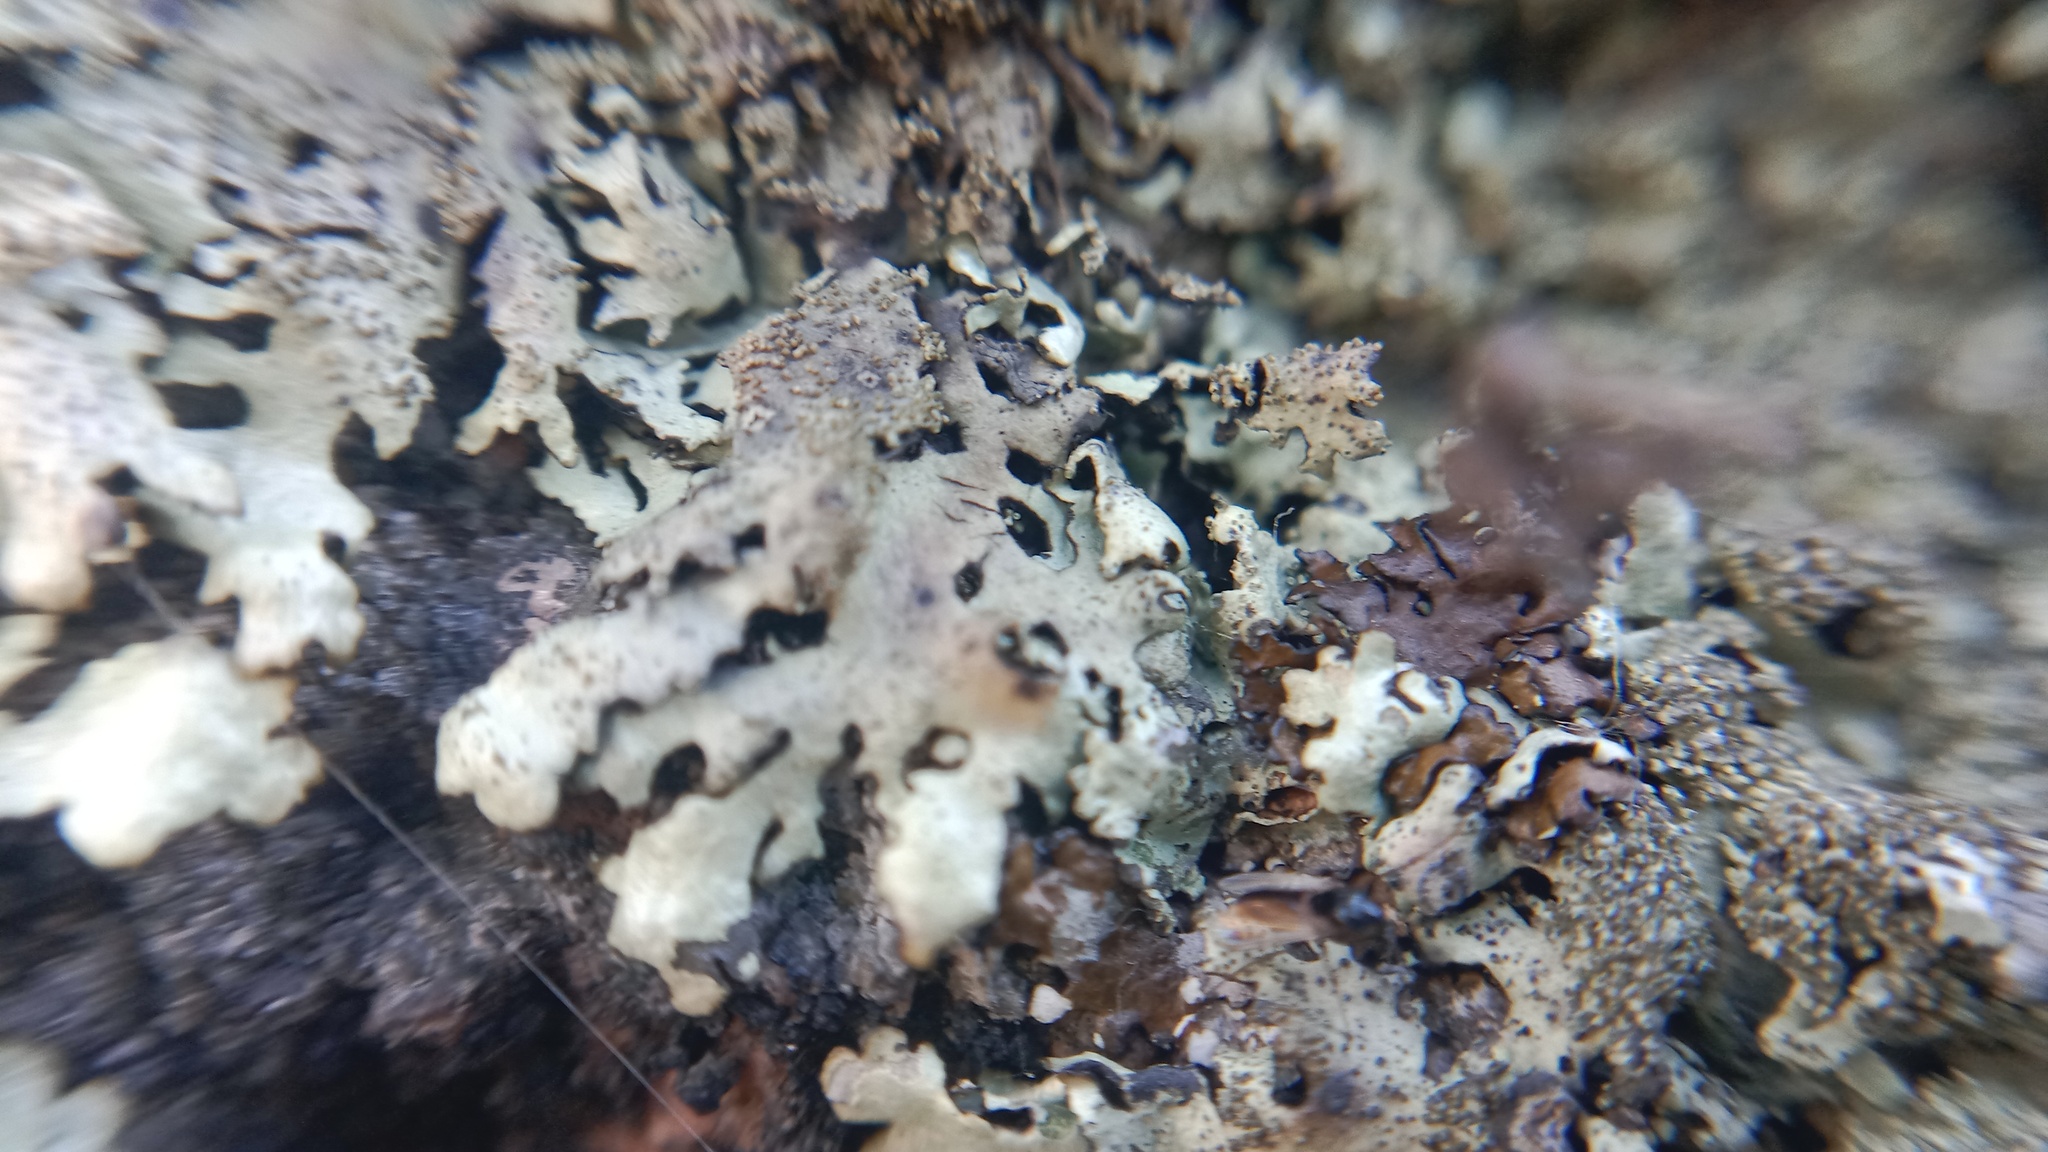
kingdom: Fungi
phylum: Ascomycota
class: Lecanoromycetes
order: Lecanorales
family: Parmeliaceae
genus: Xanthoparmelia
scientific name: Xanthoparmelia conspersa
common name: Peppered rock shield
